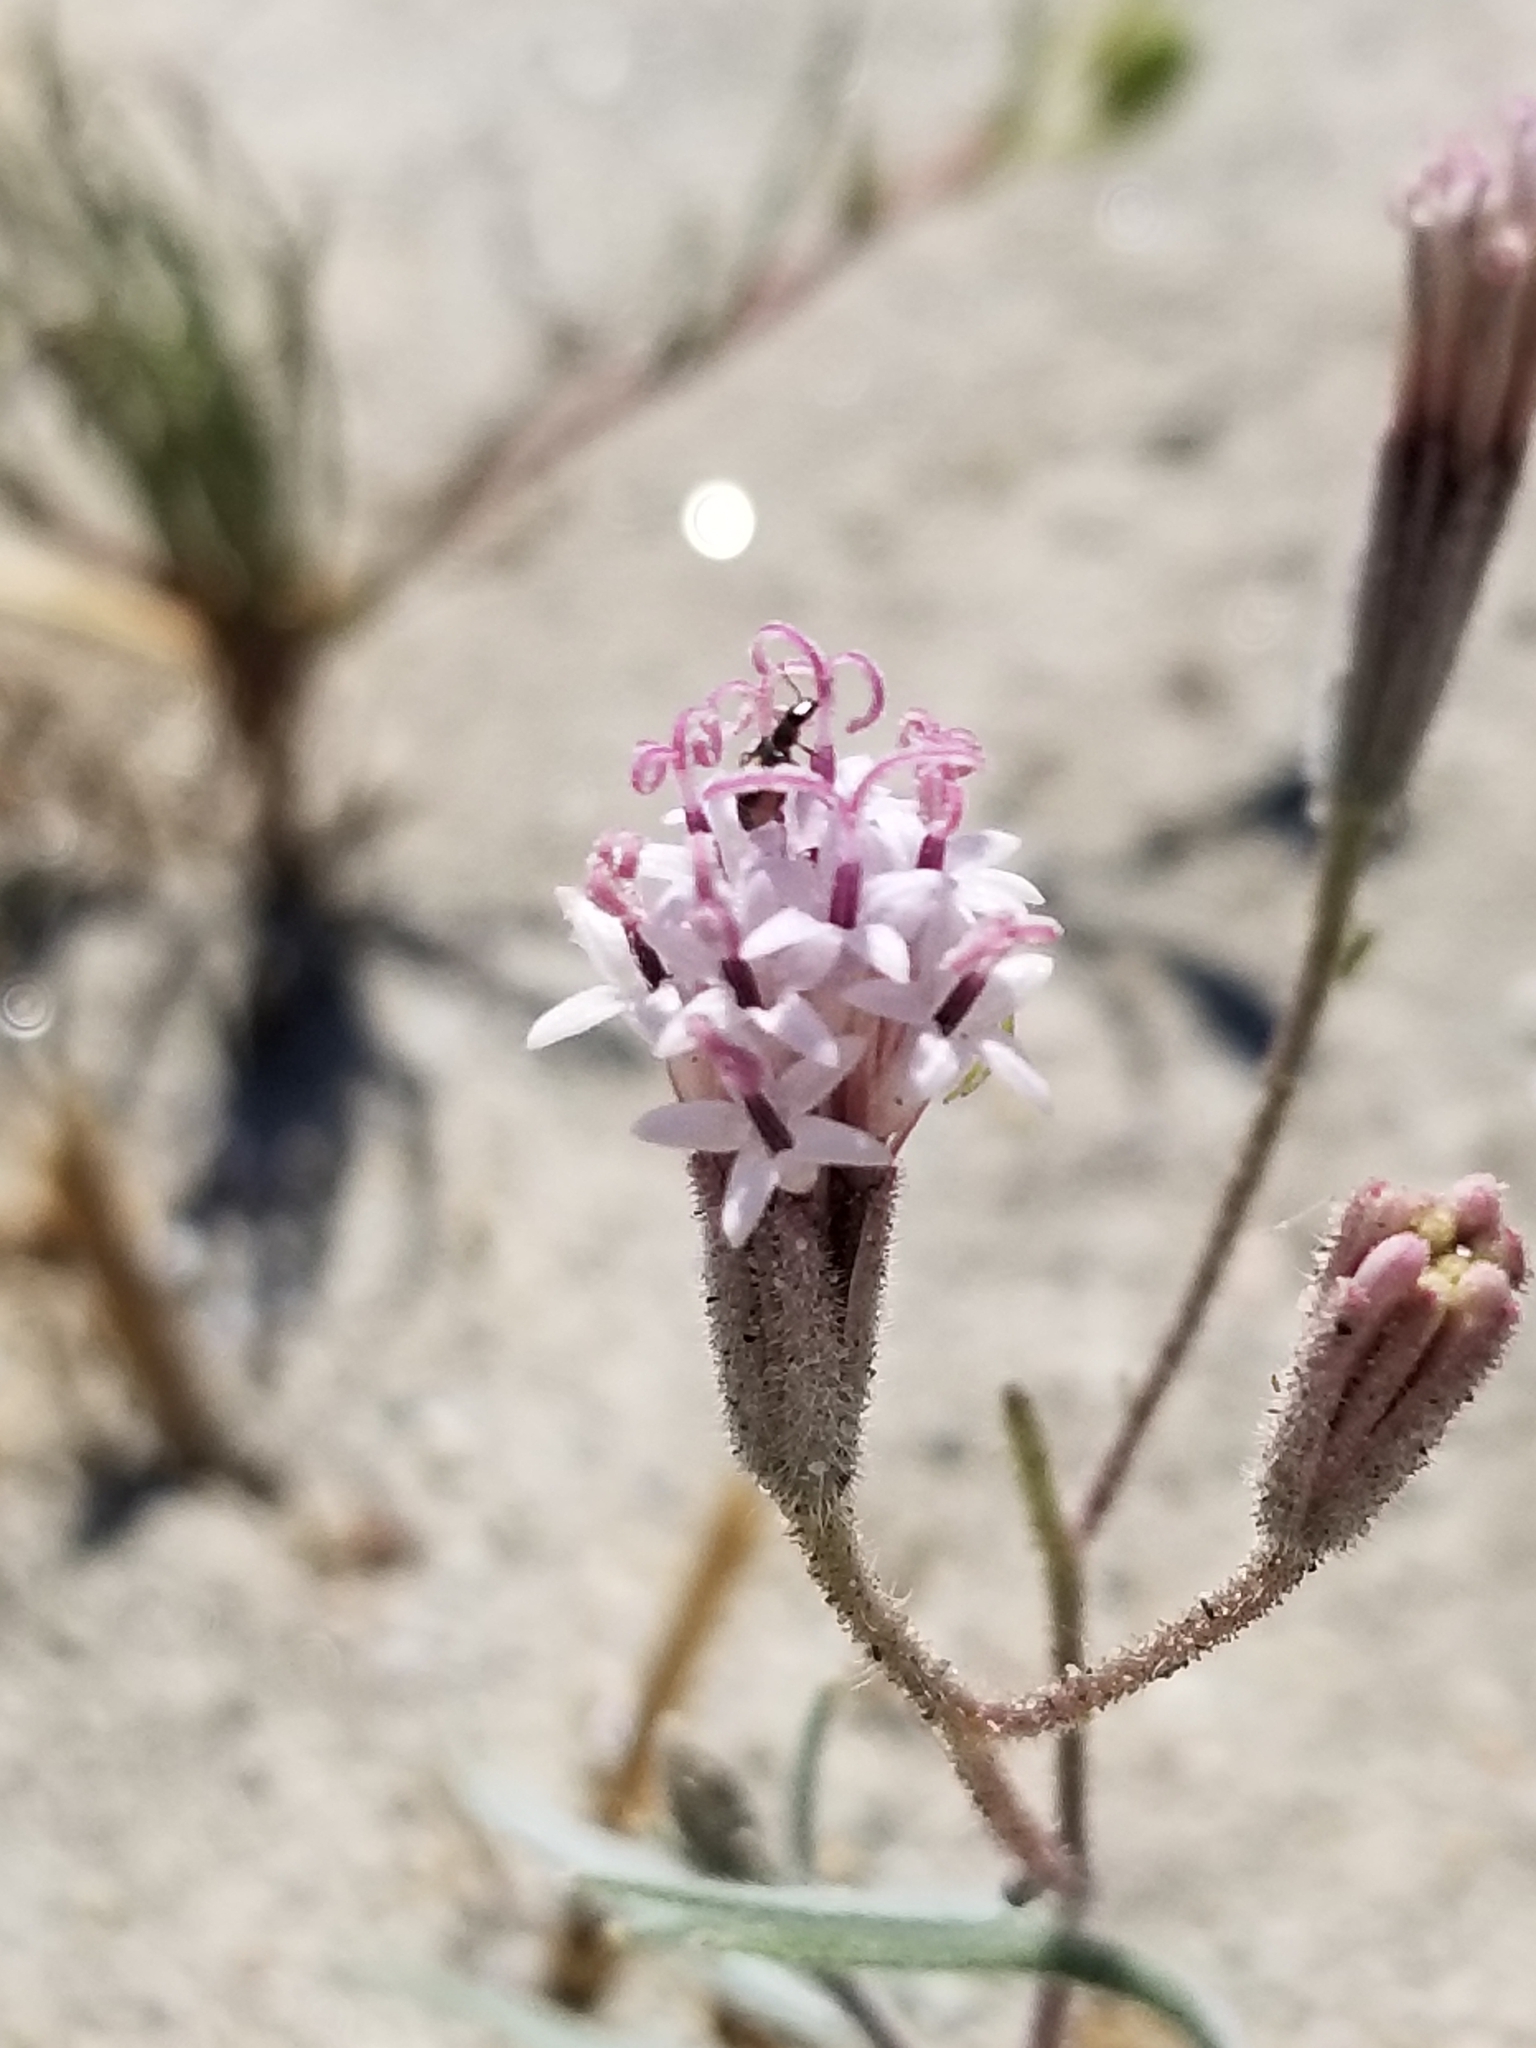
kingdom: Plantae
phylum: Tracheophyta
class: Magnoliopsida
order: Asterales
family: Asteraceae
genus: Palafoxia
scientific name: Palafoxia arida
